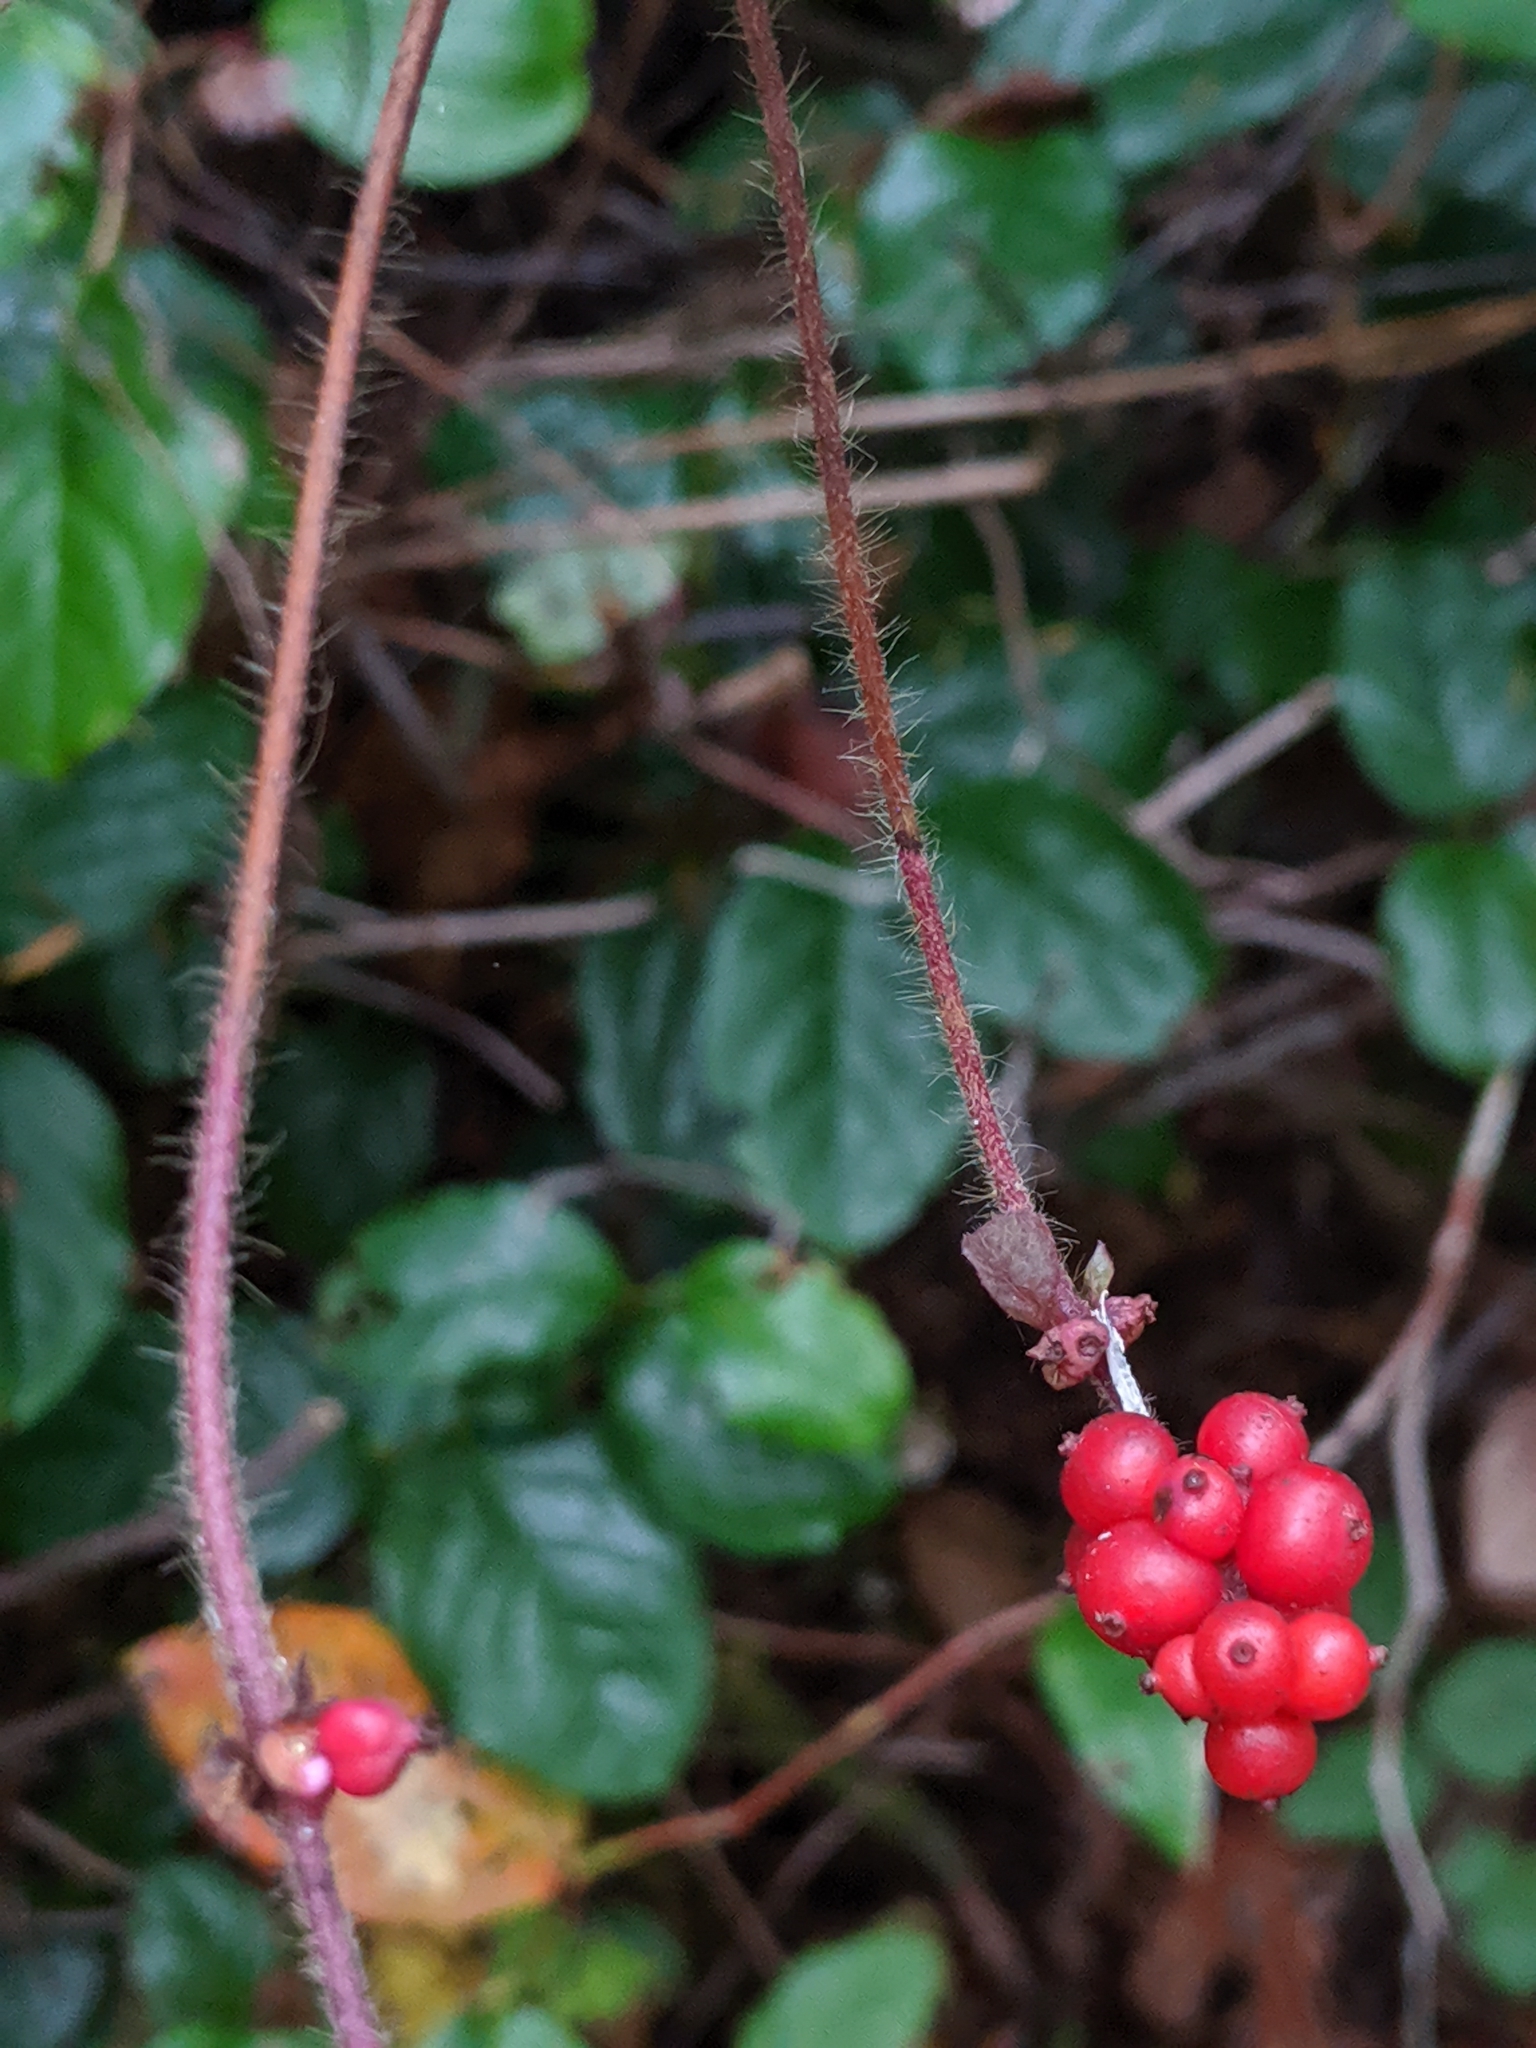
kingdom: Plantae
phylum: Tracheophyta
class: Magnoliopsida
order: Dipsacales
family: Caprifoliaceae
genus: Lonicera
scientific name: Lonicera hispidula
